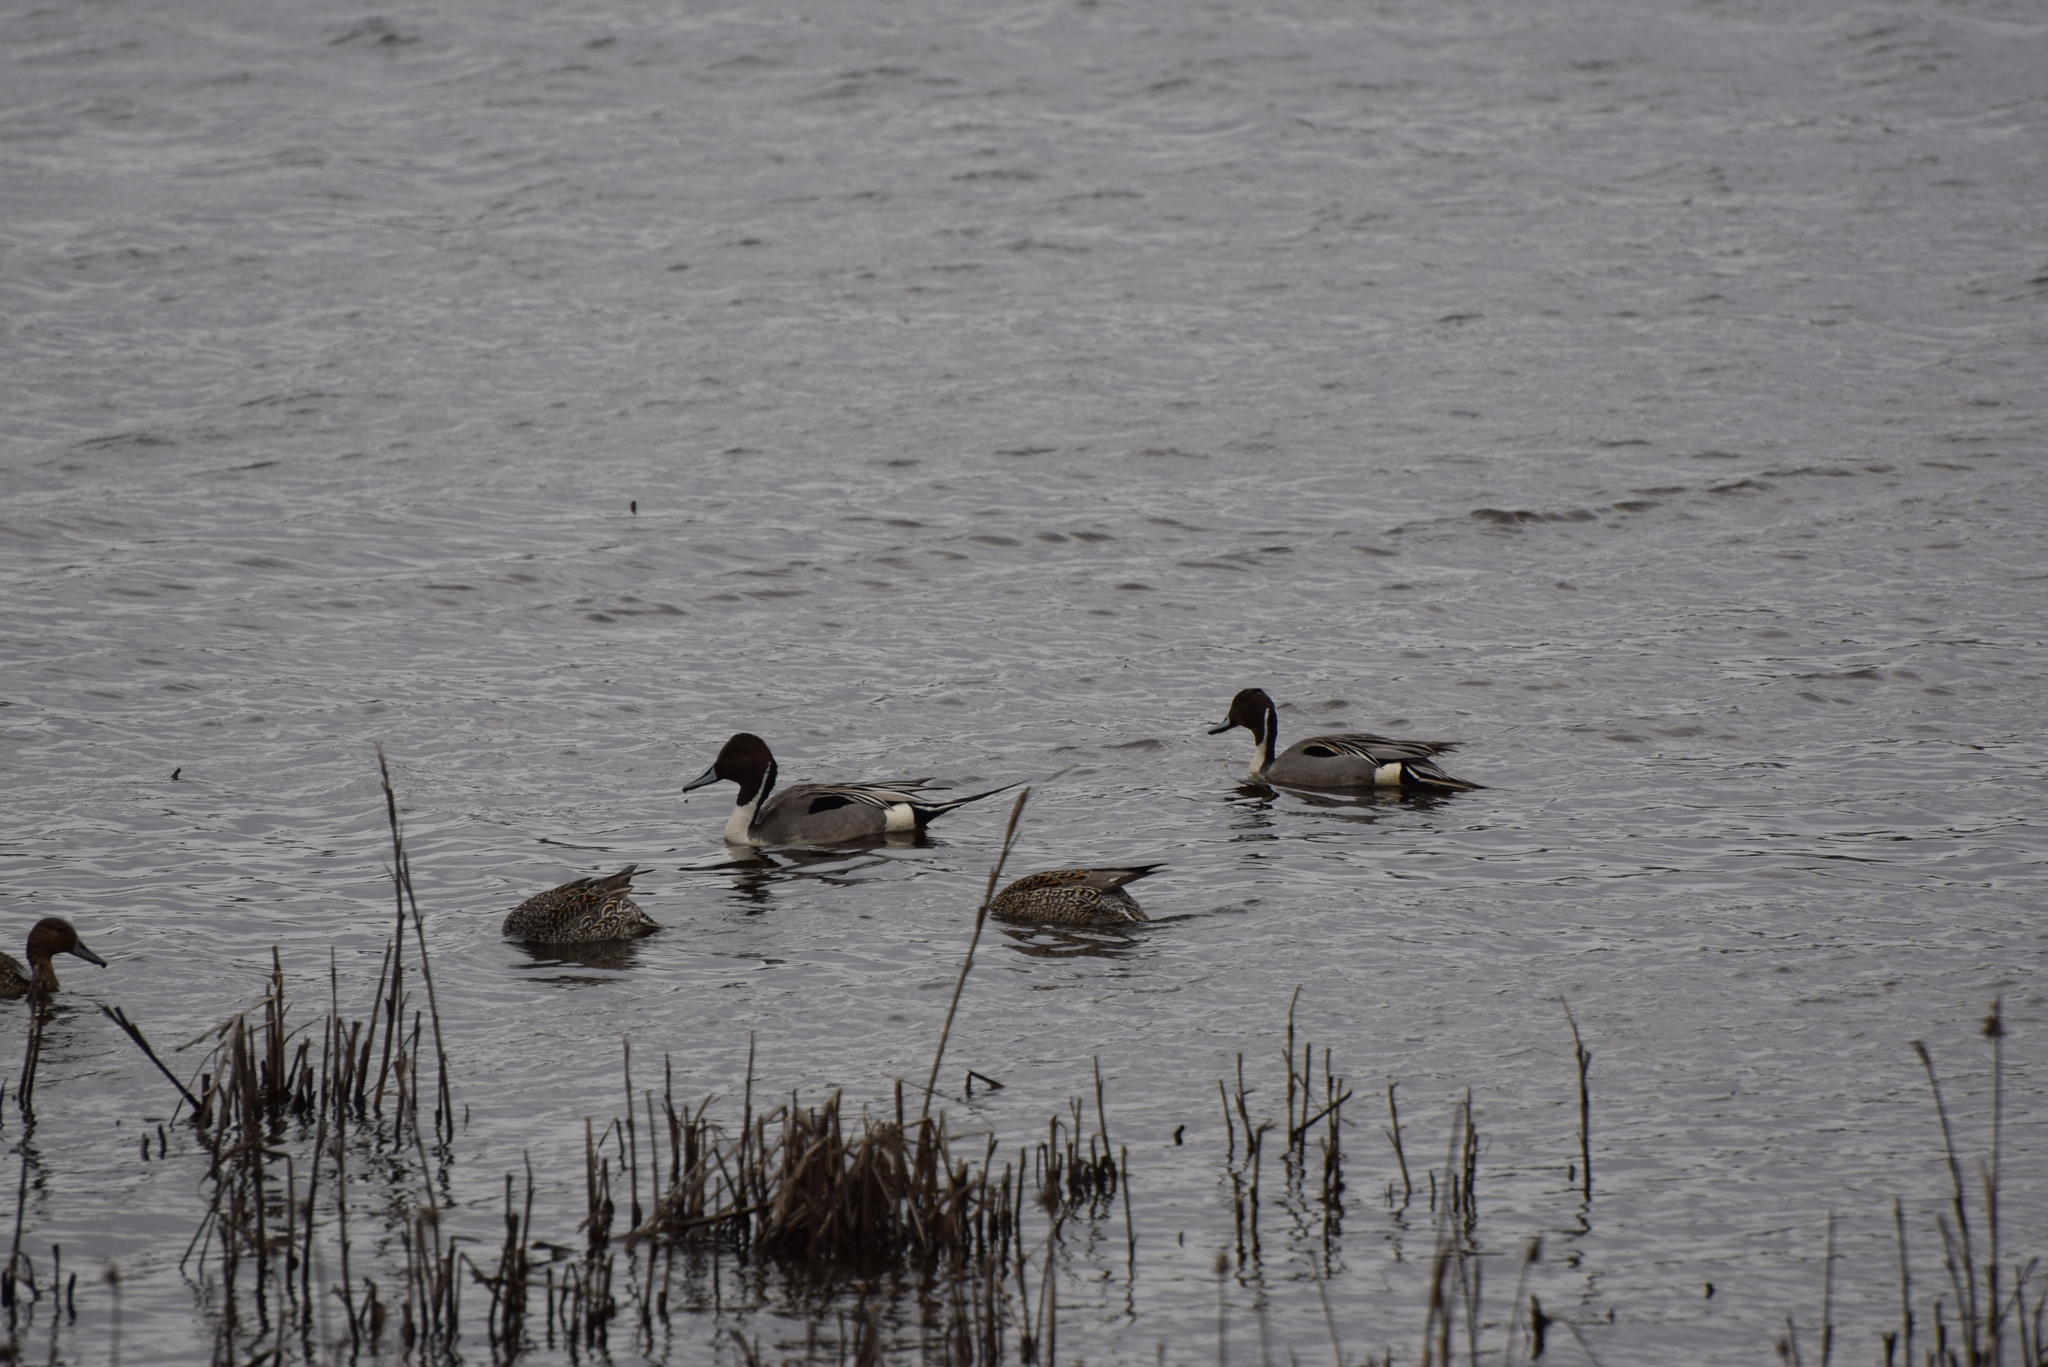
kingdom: Animalia
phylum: Chordata
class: Aves
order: Anseriformes
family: Anatidae
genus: Anas
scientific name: Anas acuta
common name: Northern pintail
